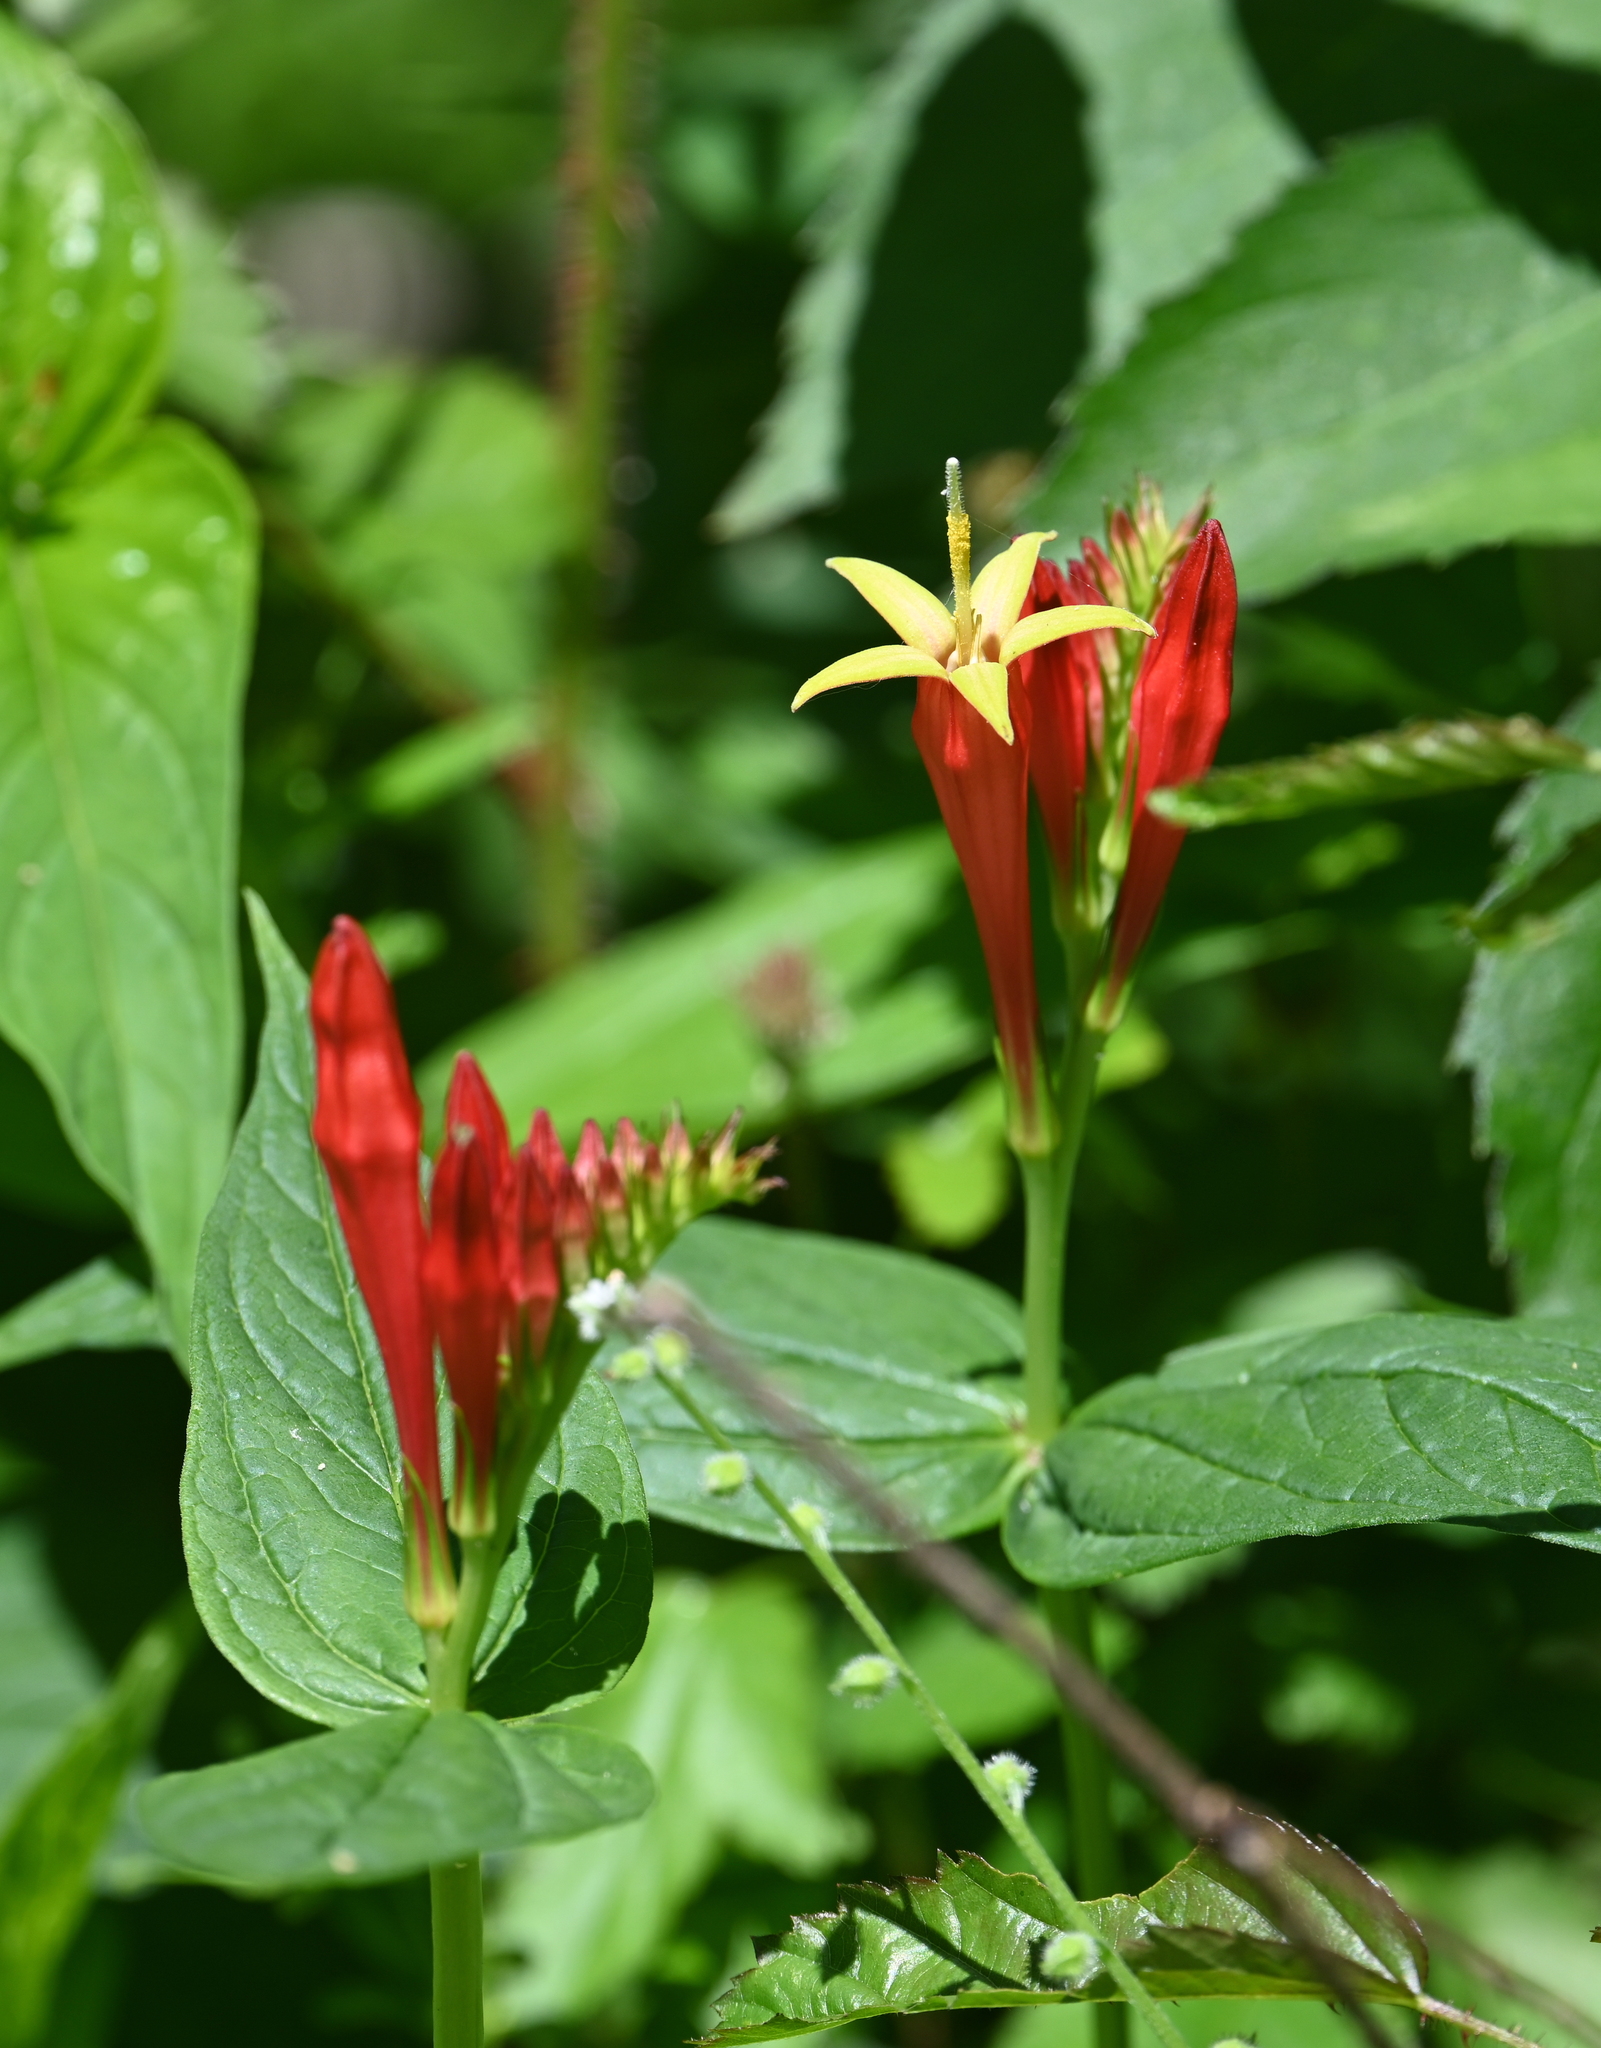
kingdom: Plantae
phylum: Tracheophyta
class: Magnoliopsida
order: Gentianales
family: Loganiaceae
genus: Spigelia
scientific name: Spigelia marilandica
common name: Indian-pink
